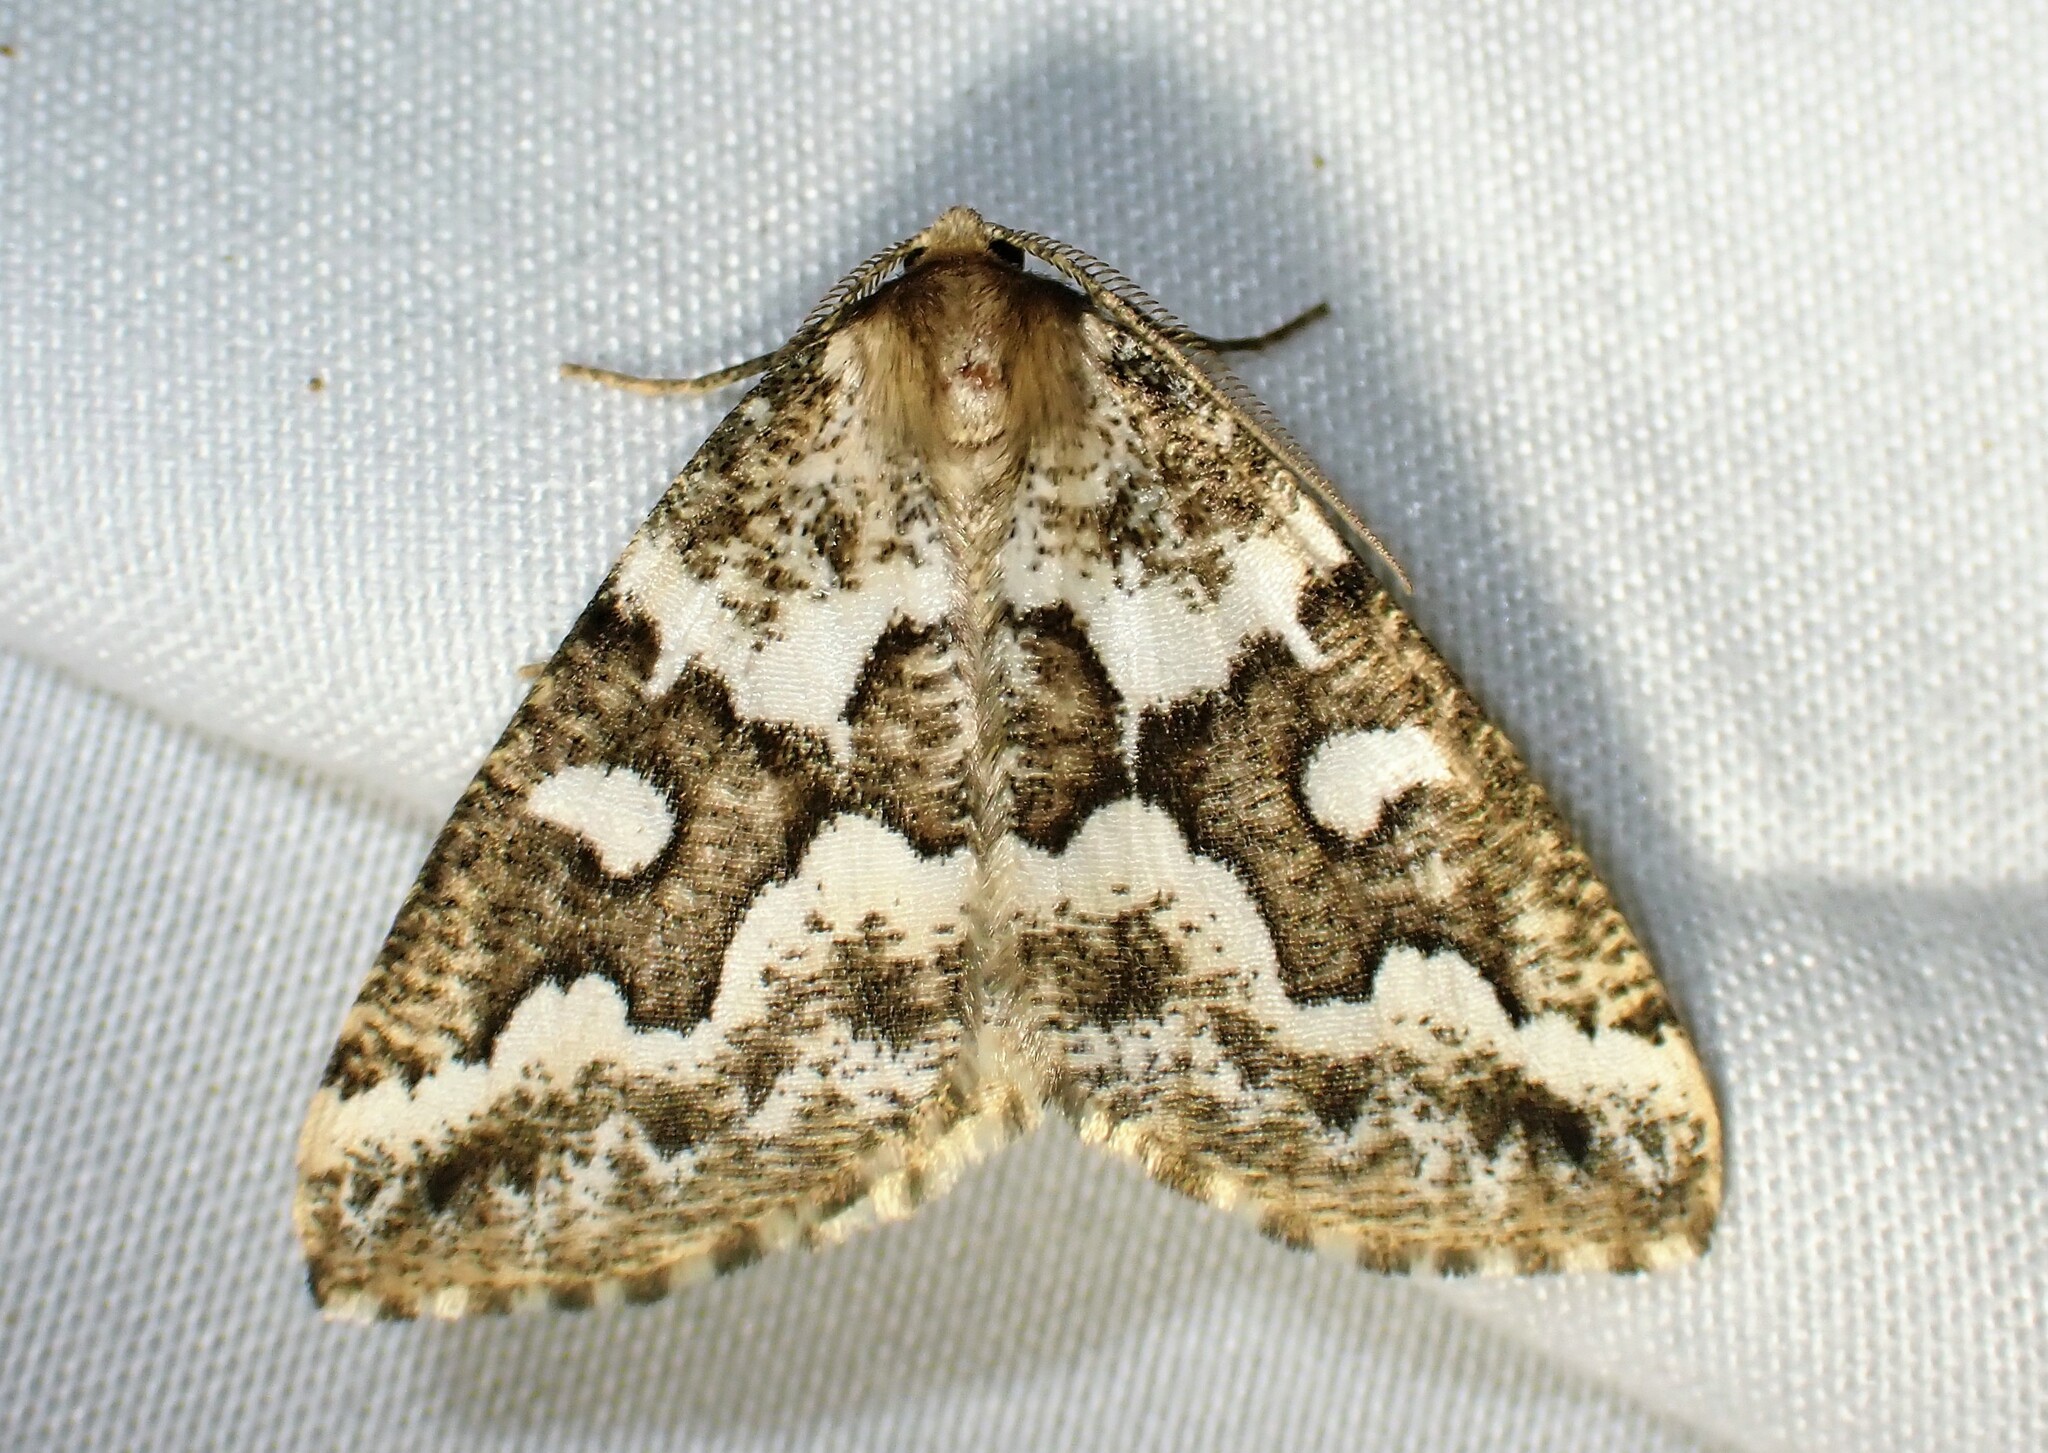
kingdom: Animalia
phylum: Arthropoda
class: Insecta
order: Lepidoptera
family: Geometridae
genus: Caripeta
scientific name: Caripeta divisata
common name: Gray spruce looper
